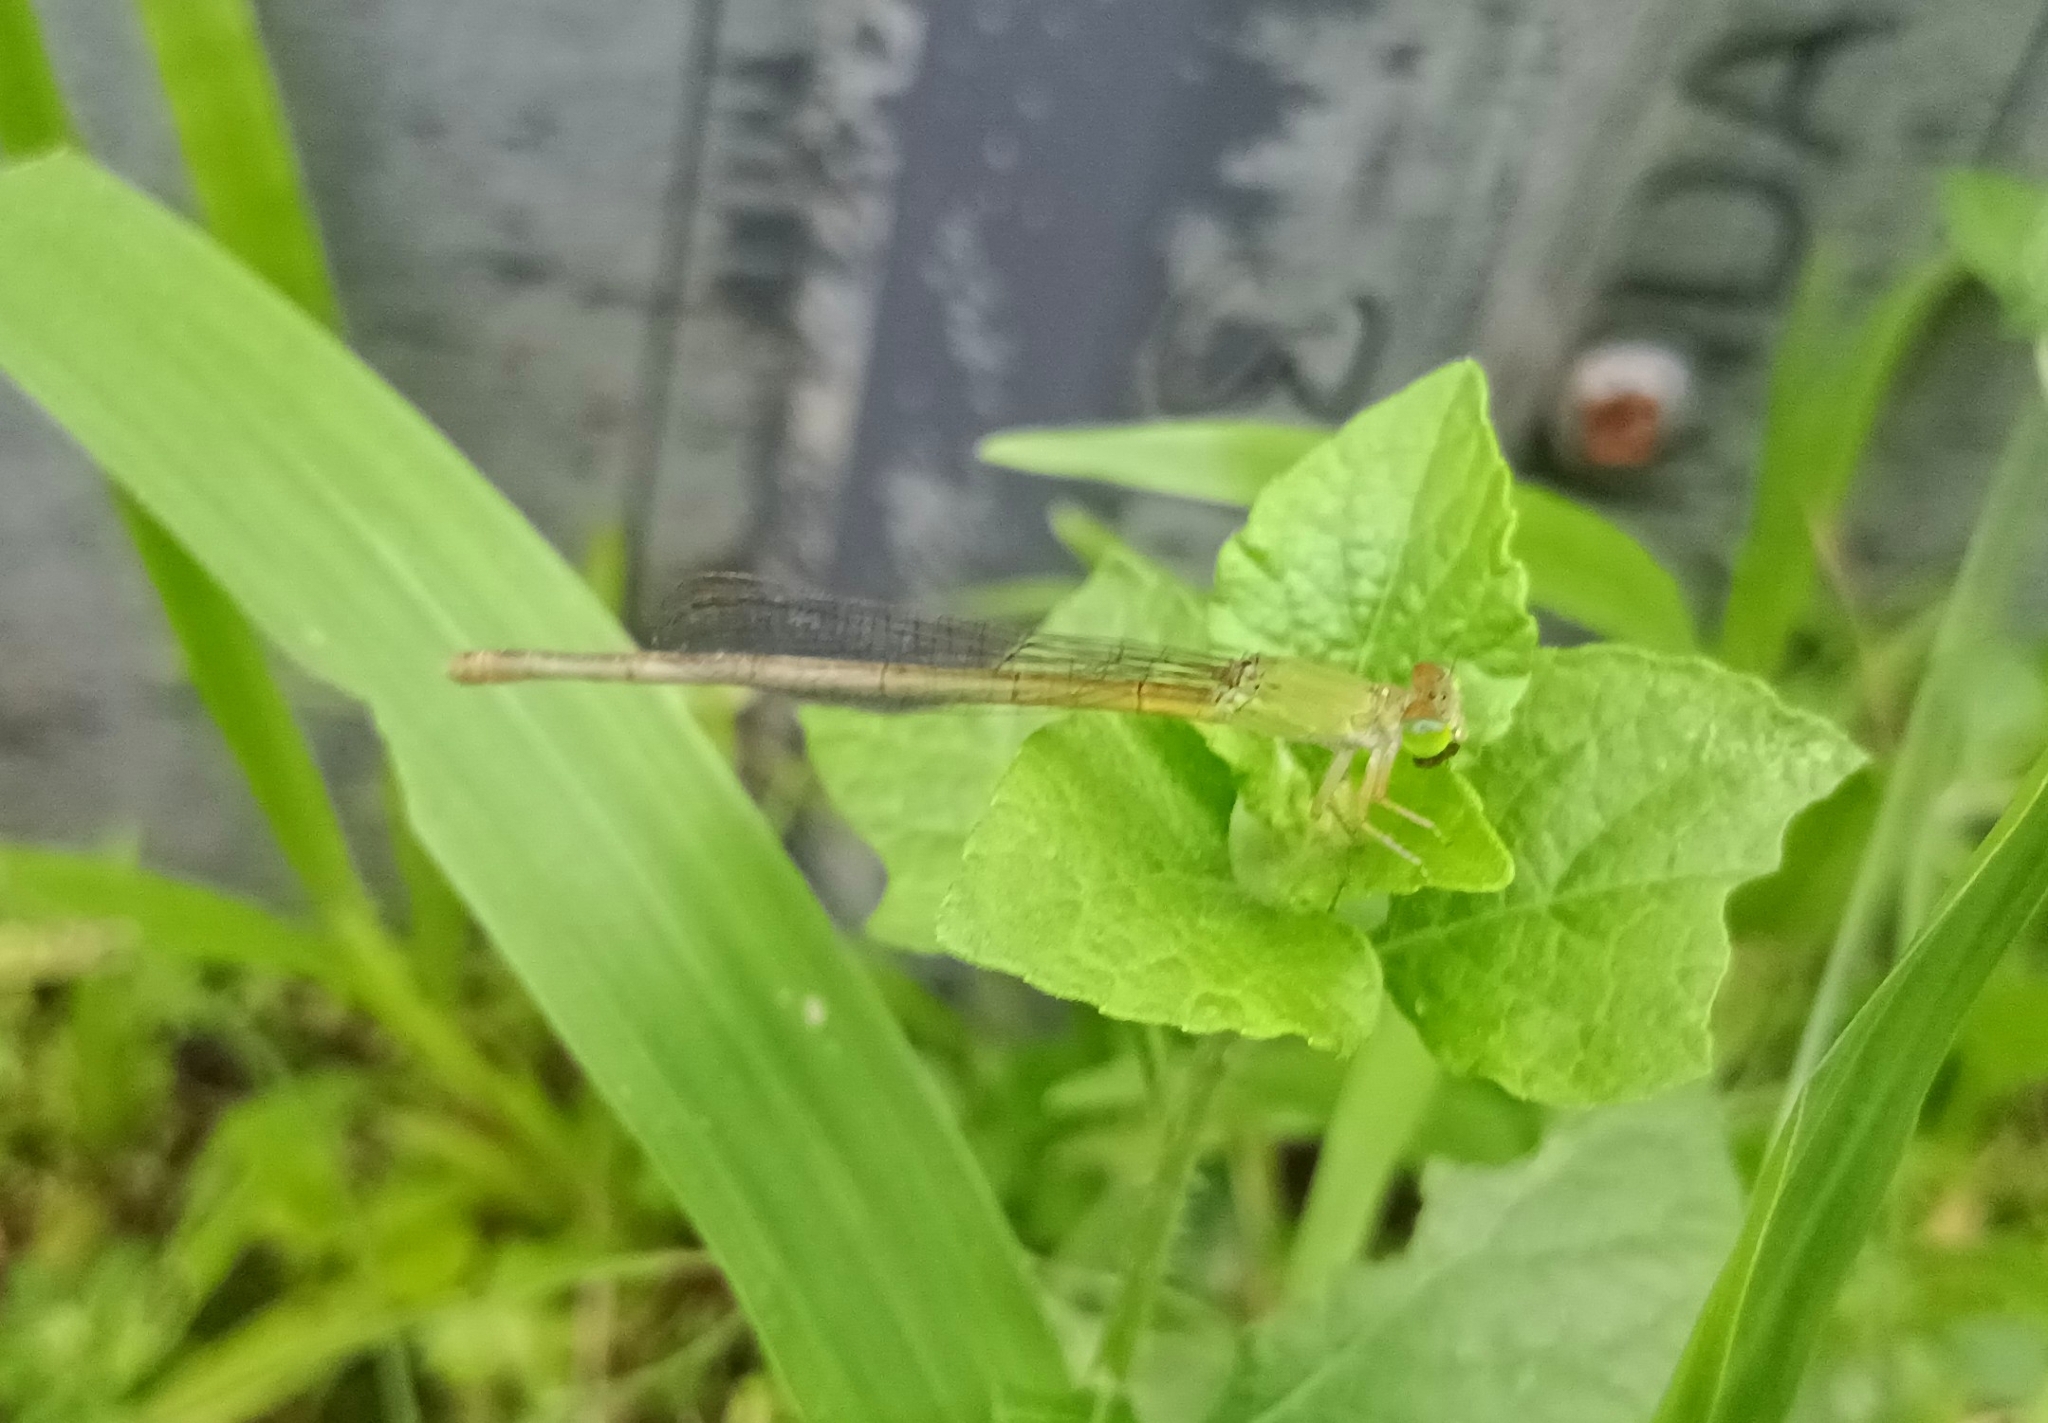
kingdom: Animalia
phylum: Arthropoda
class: Insecta
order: Odonata
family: Coenagrionidae
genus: Ceriagrion
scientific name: Ceriagrion coromandelianum
